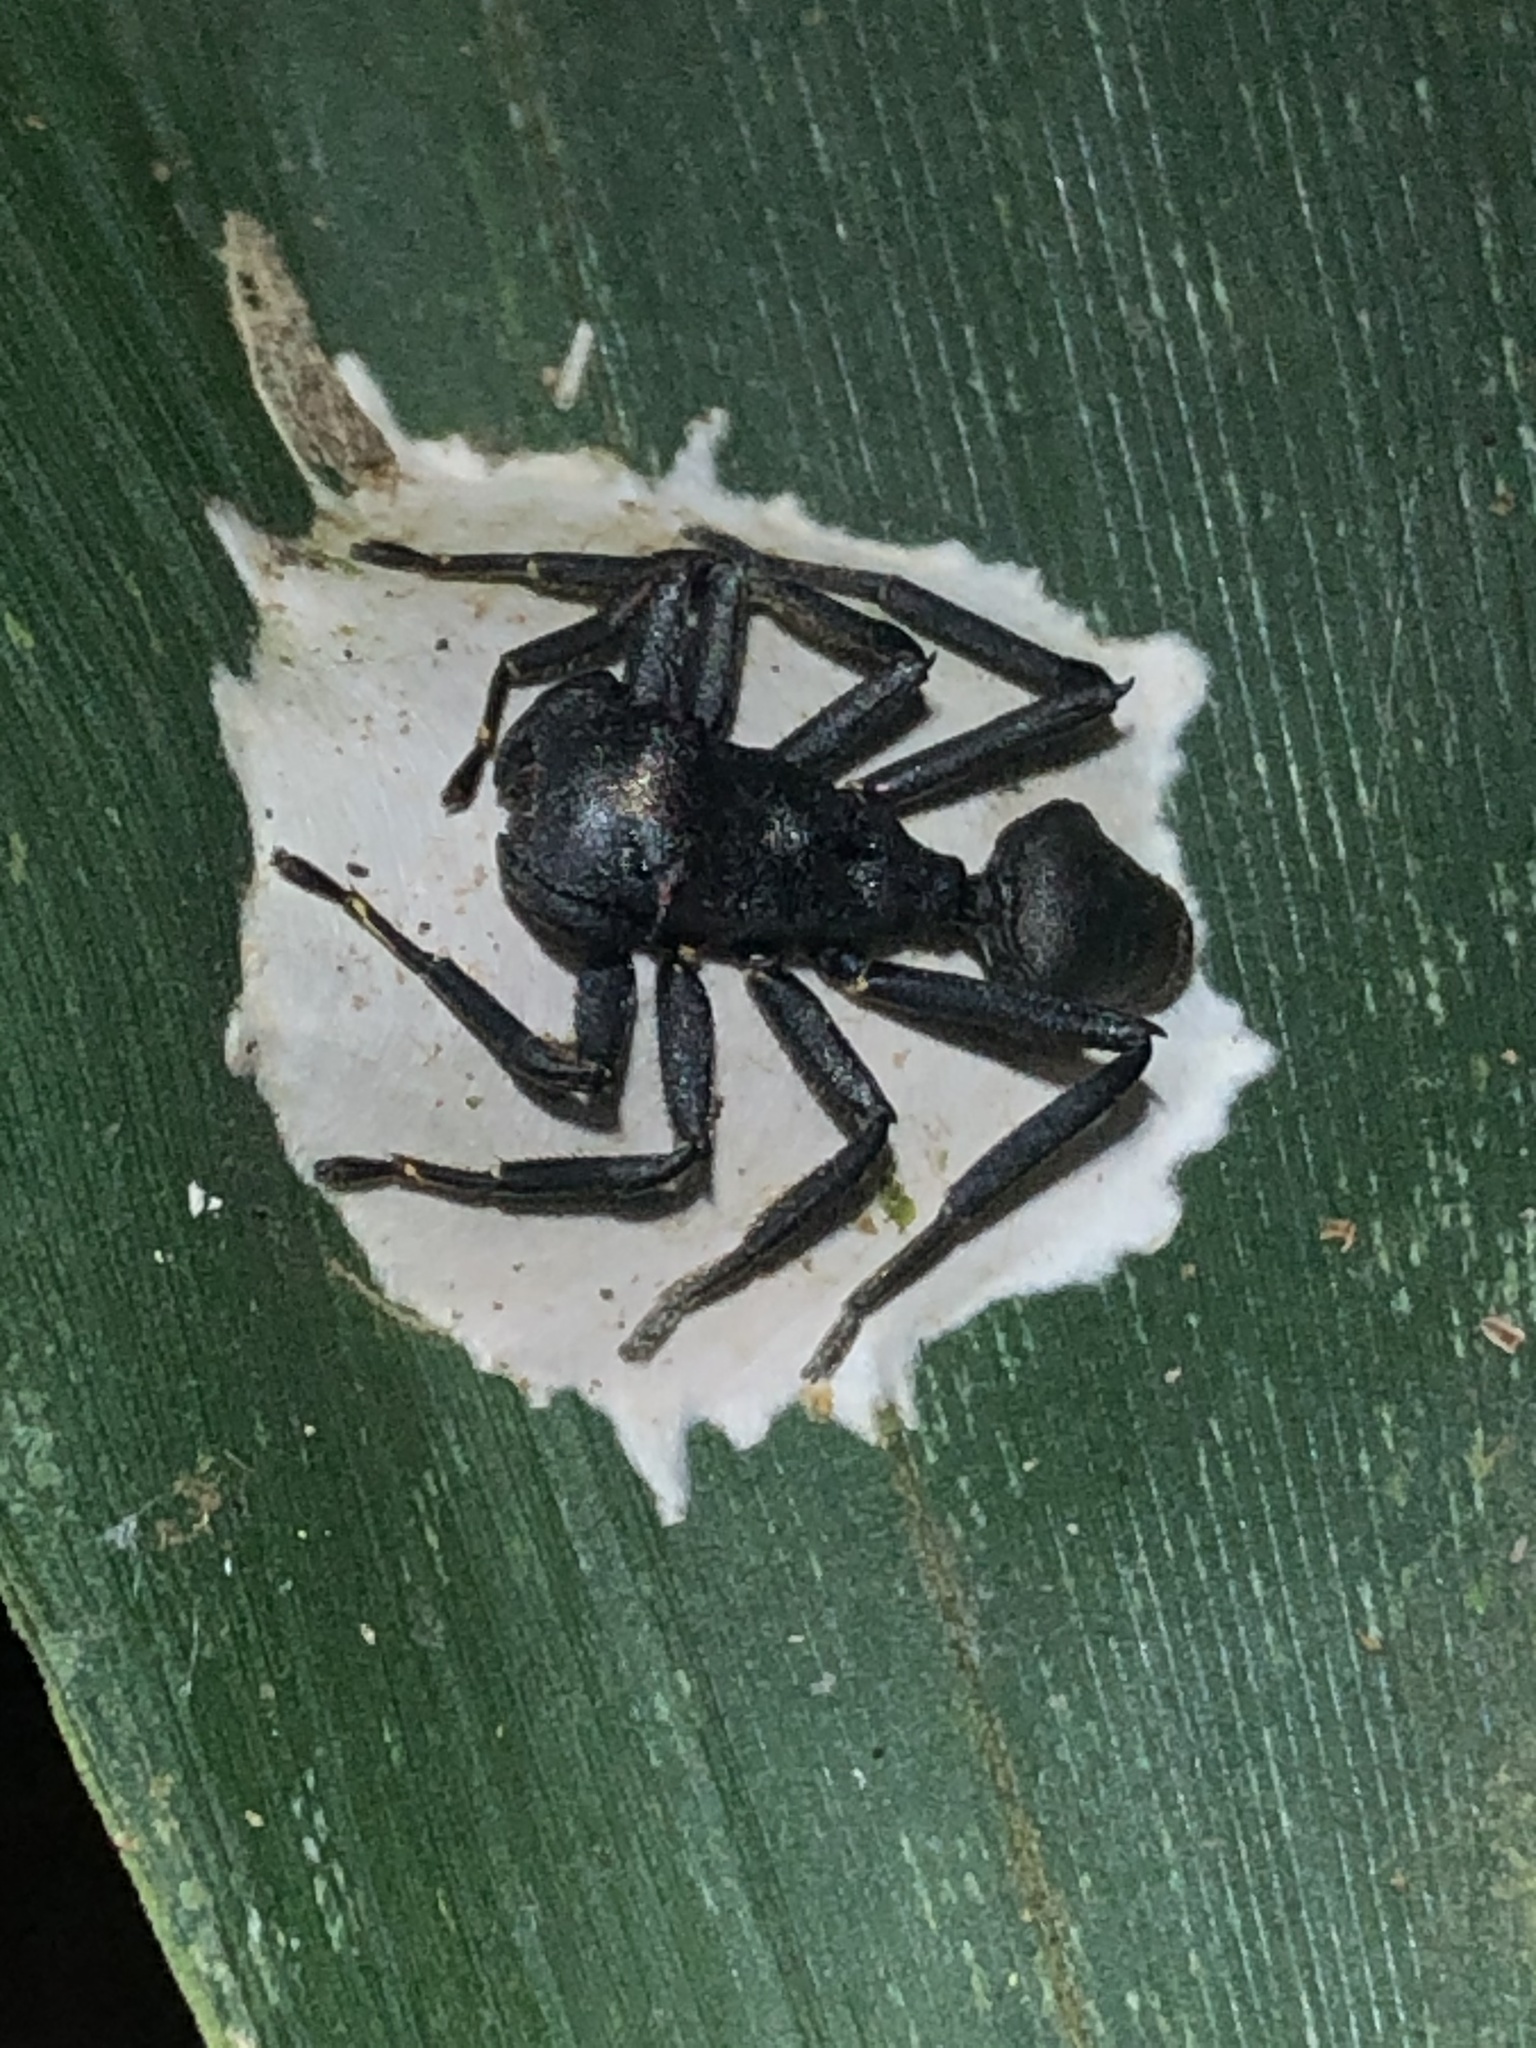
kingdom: Animalia
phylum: Arthropoda
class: Arachnida
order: Araneae
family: Thomisidae
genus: Aphantochilus
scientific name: Aphantochilus rogersi
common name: Crab spiders
